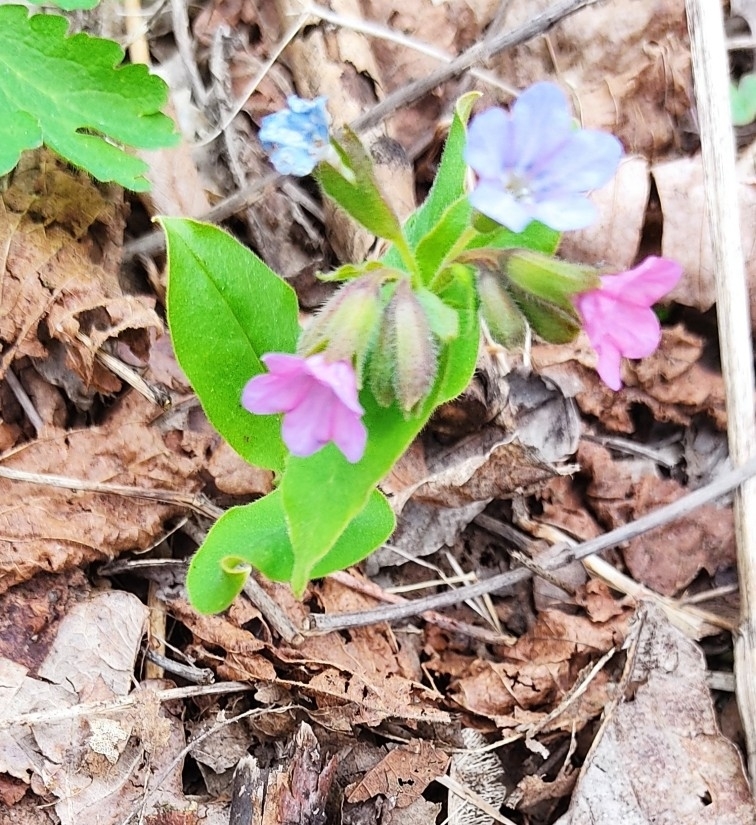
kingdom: Plantae
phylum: Tracheophyta
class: Magnoliopsida
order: Boraginales
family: Boraginaceae
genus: Pulmonaria
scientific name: Pulmonaria obscura
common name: Suffolk lungwort
